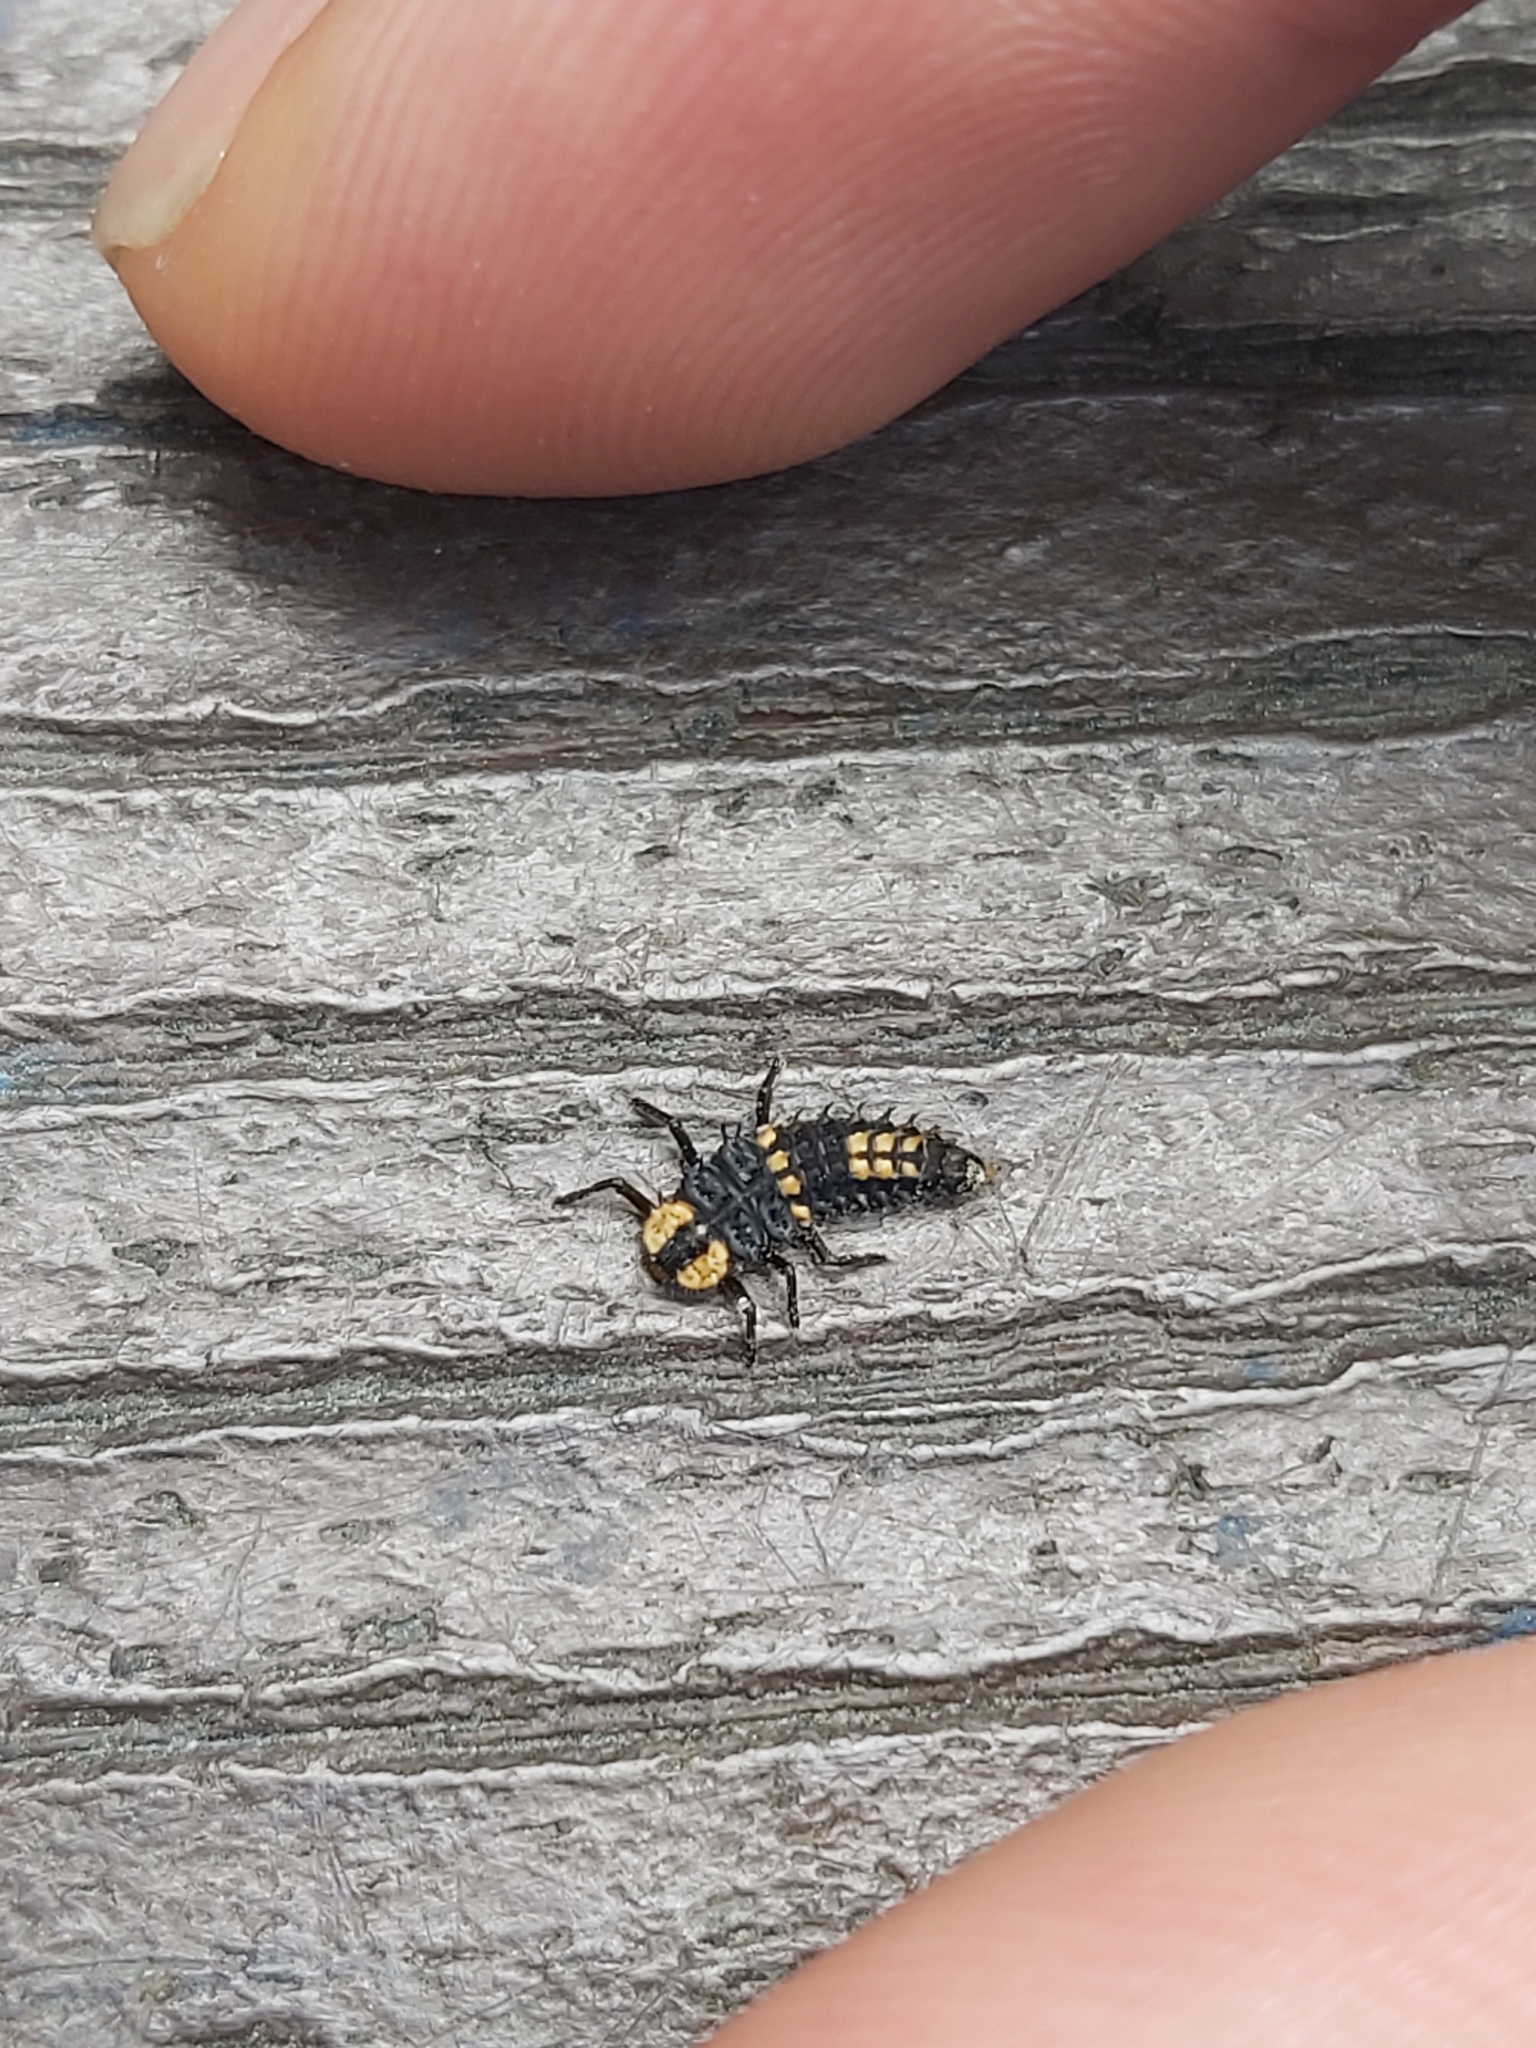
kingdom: Animalia
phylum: Arthropoda
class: Insecta
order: Coleoptera
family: Coccinellidae
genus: Harmonia
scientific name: Harmonia
